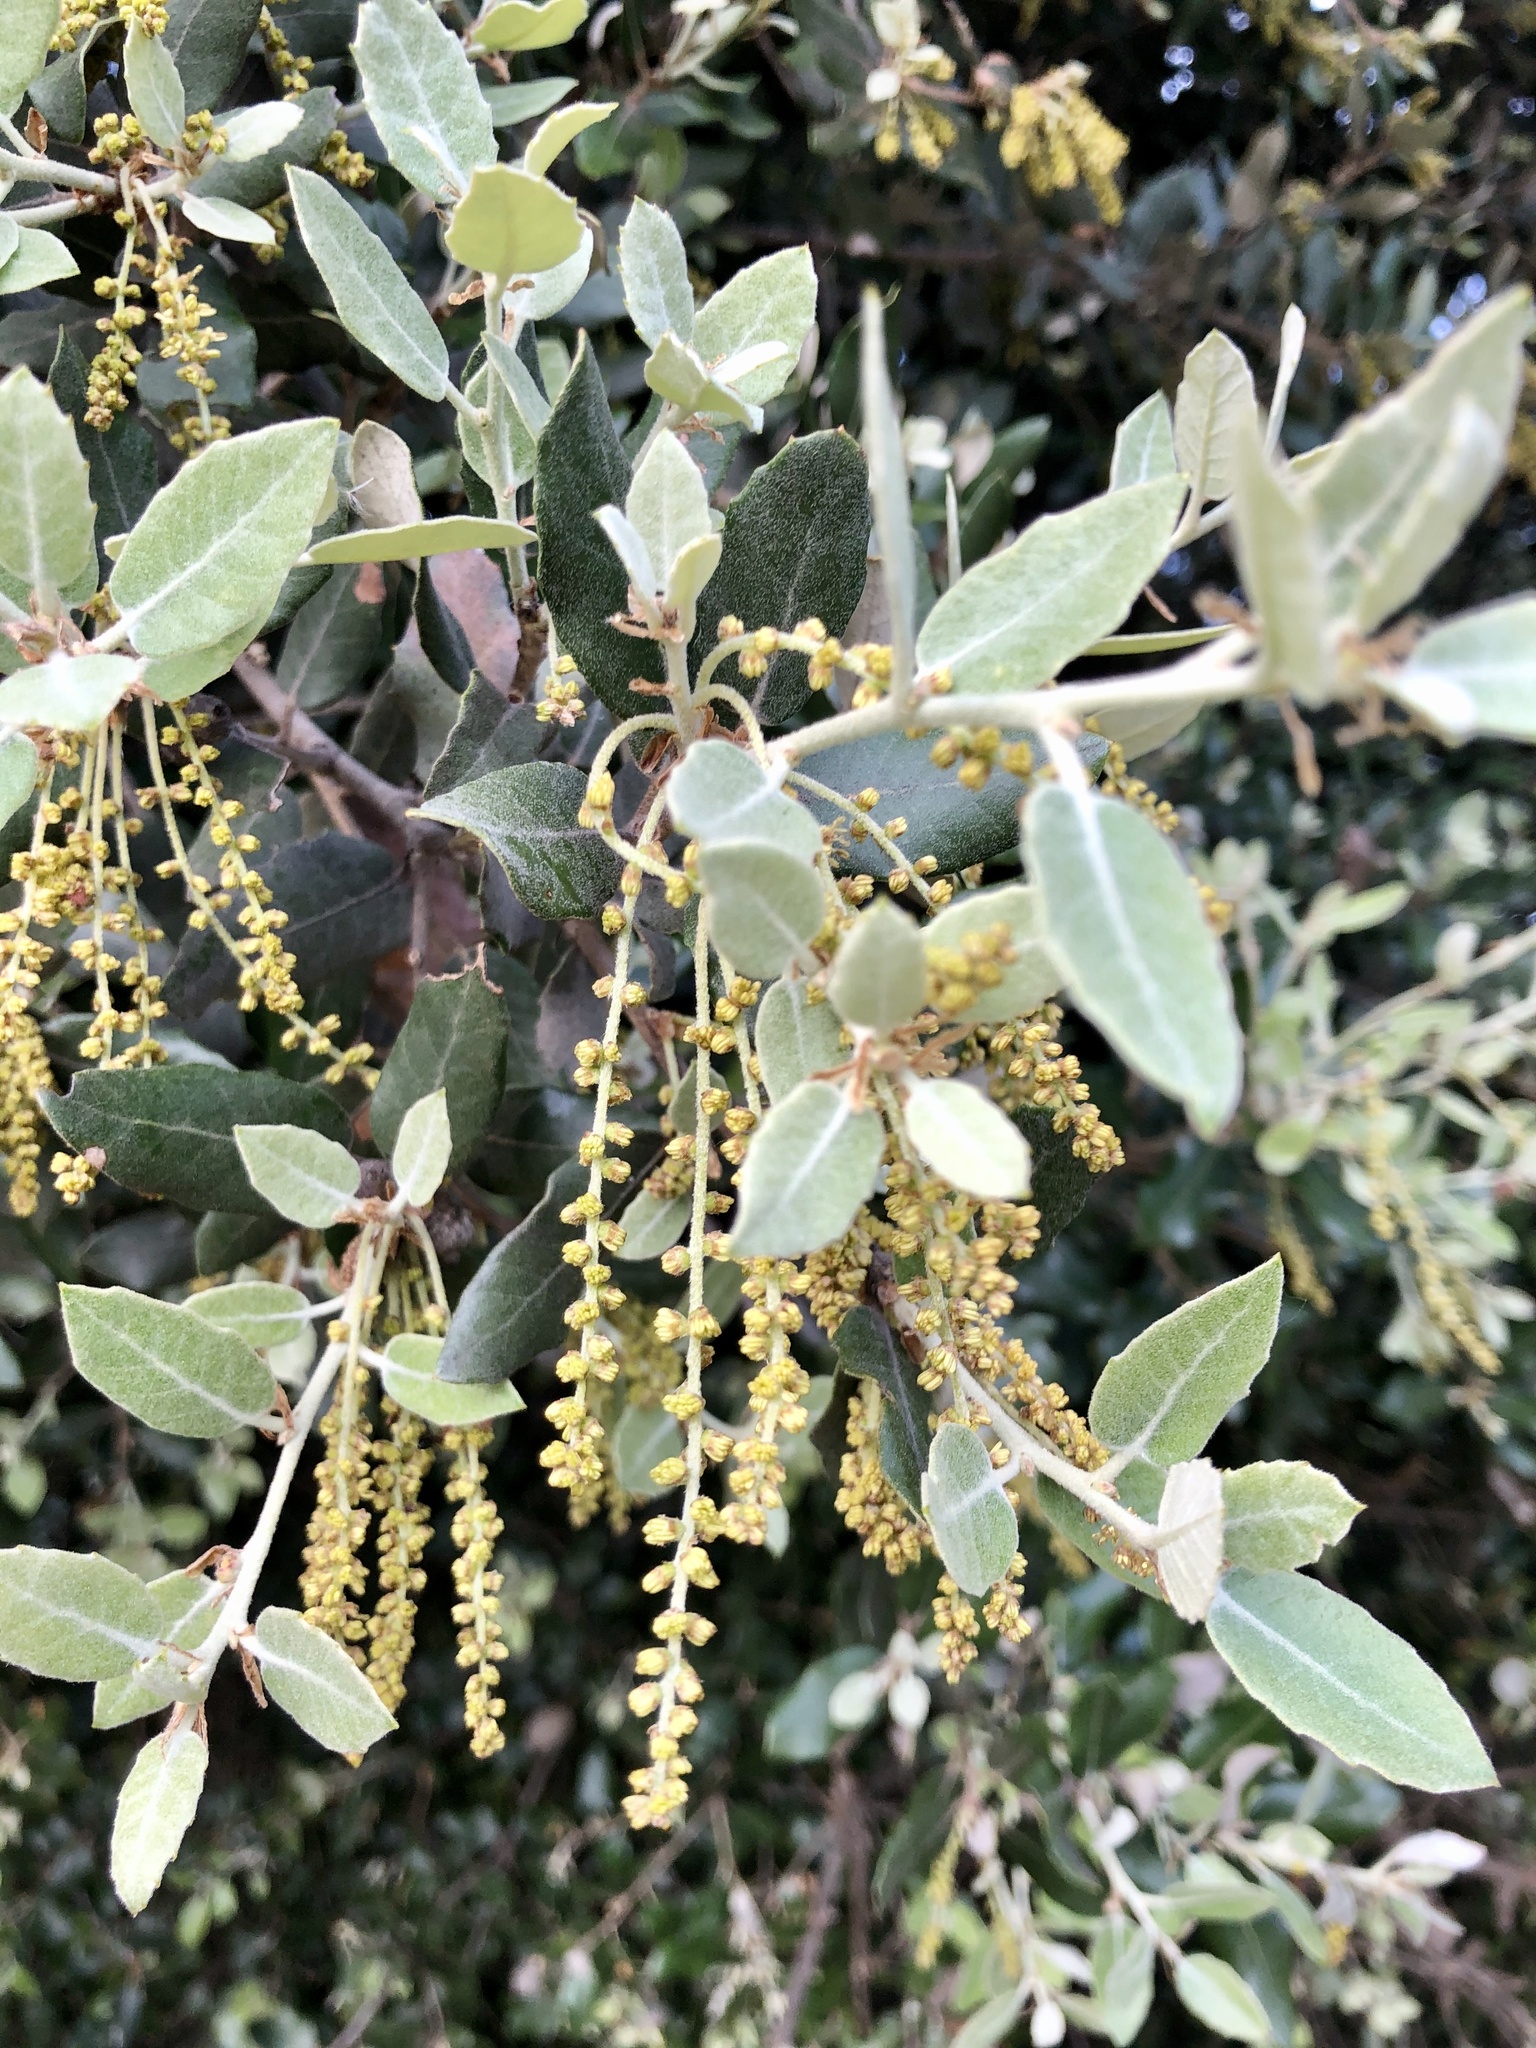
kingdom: Plantae
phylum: Tracheophyta
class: Magnoliopsida
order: Fagales
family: Fagaceae
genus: Quercus
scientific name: Quercus ilex
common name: Evergreen oak
